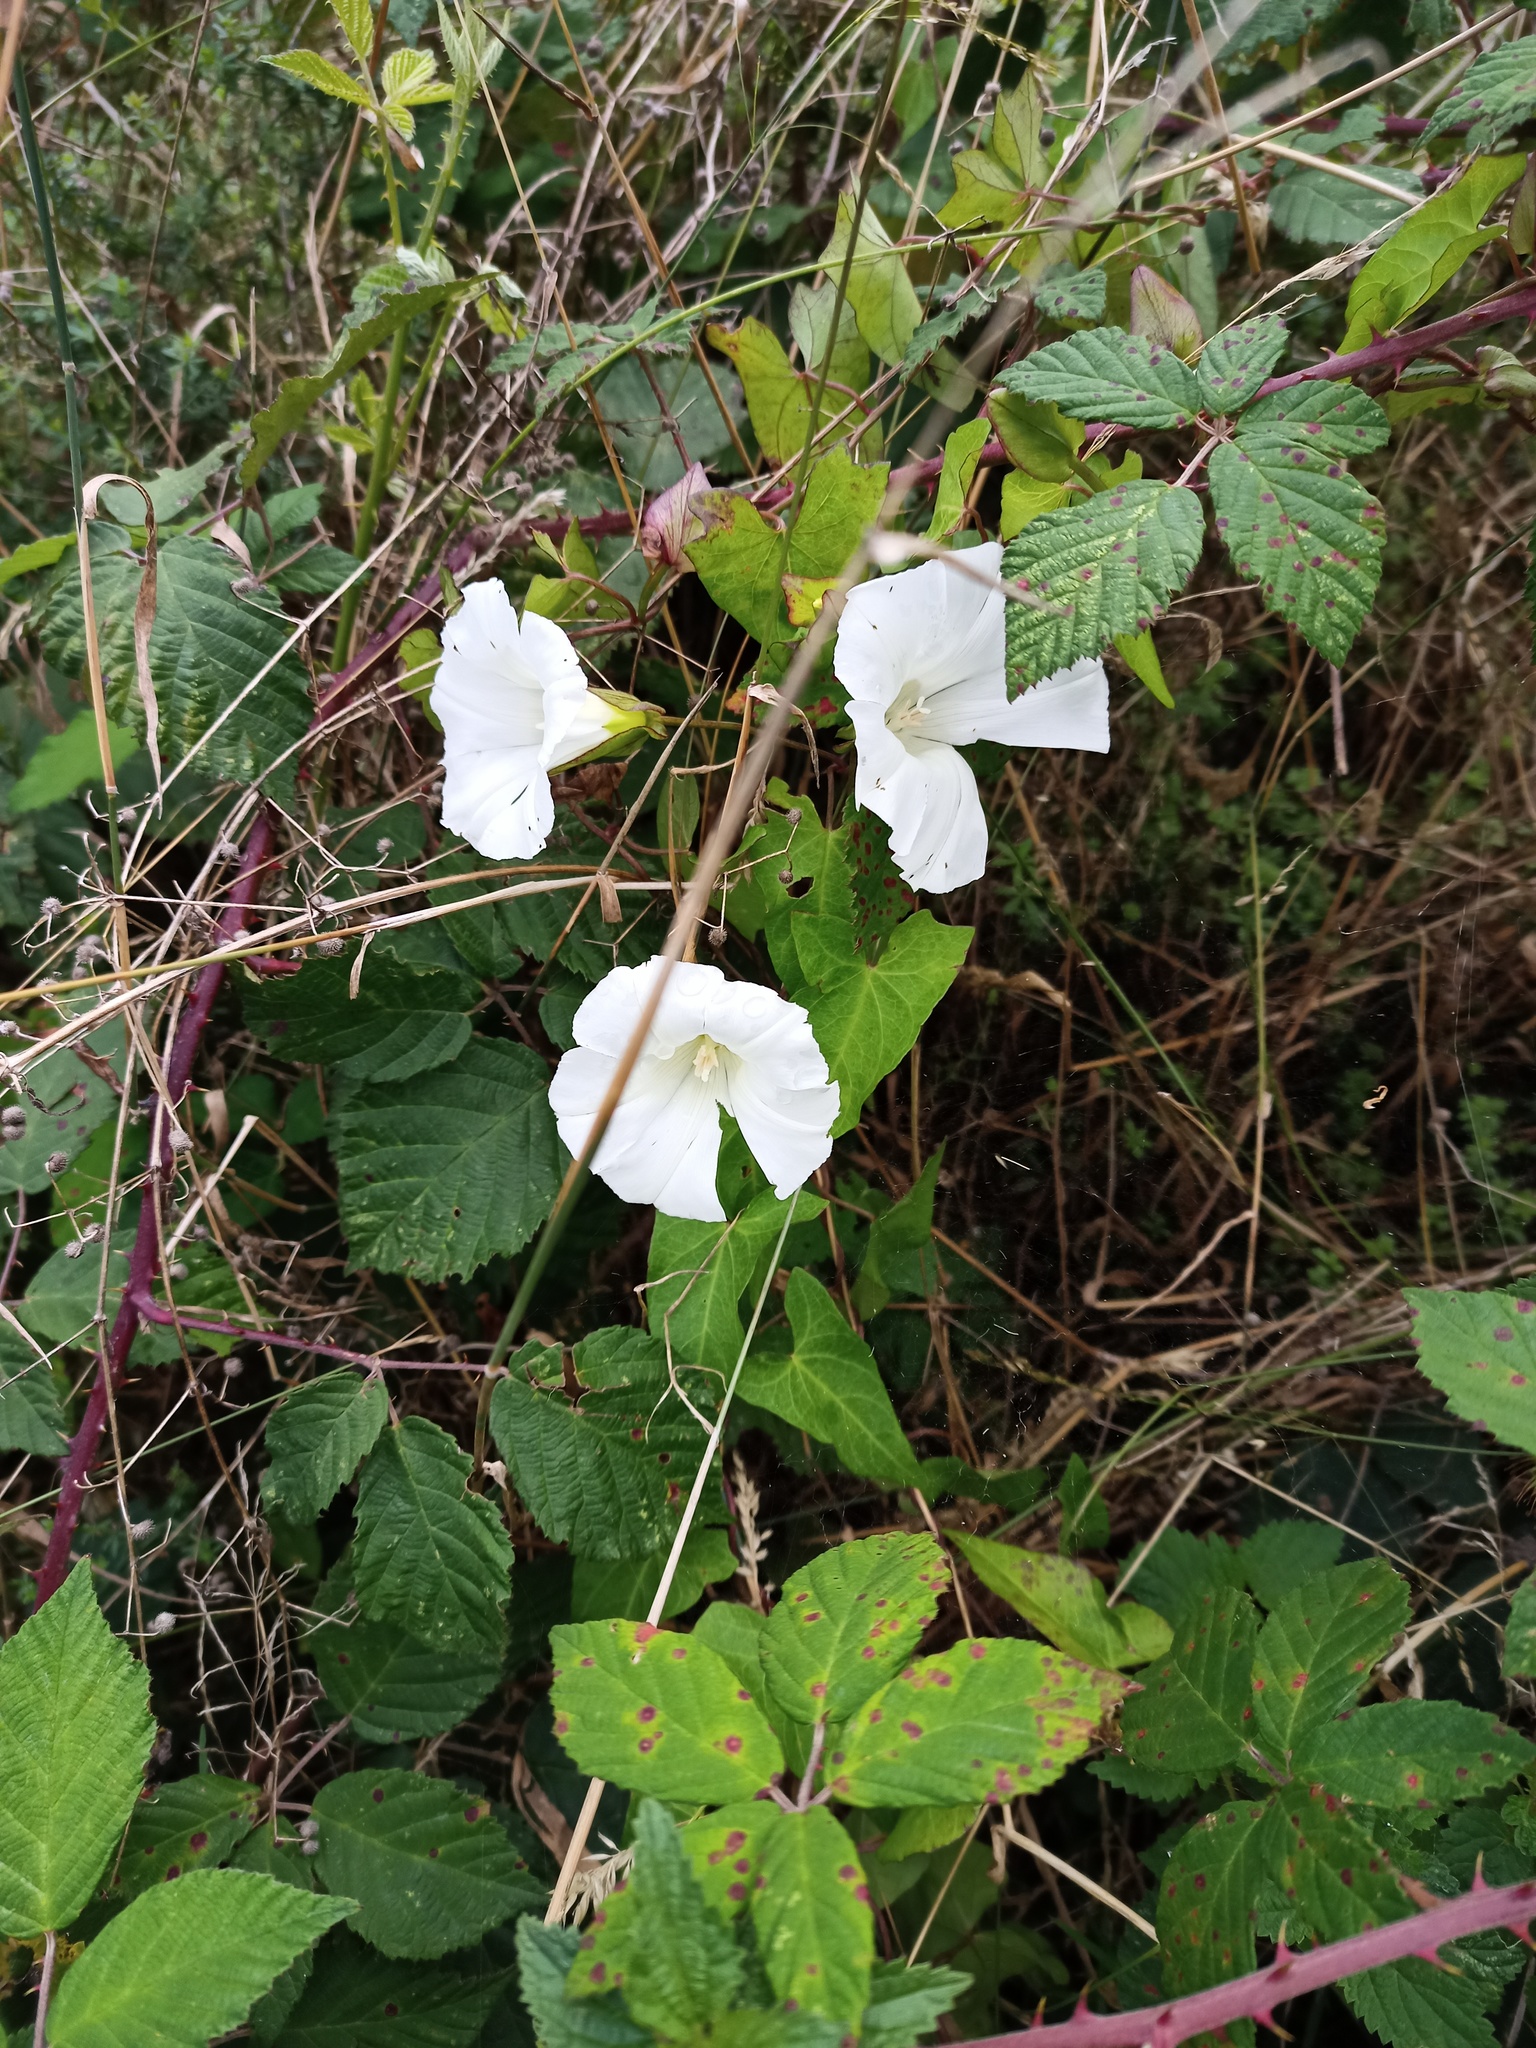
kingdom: Plantae
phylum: Tracheophyta
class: Magnoliopsida
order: Solanales
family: Convolvulaceae
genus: Calystegia
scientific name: Calystegia sepium
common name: Hedge bindweed
